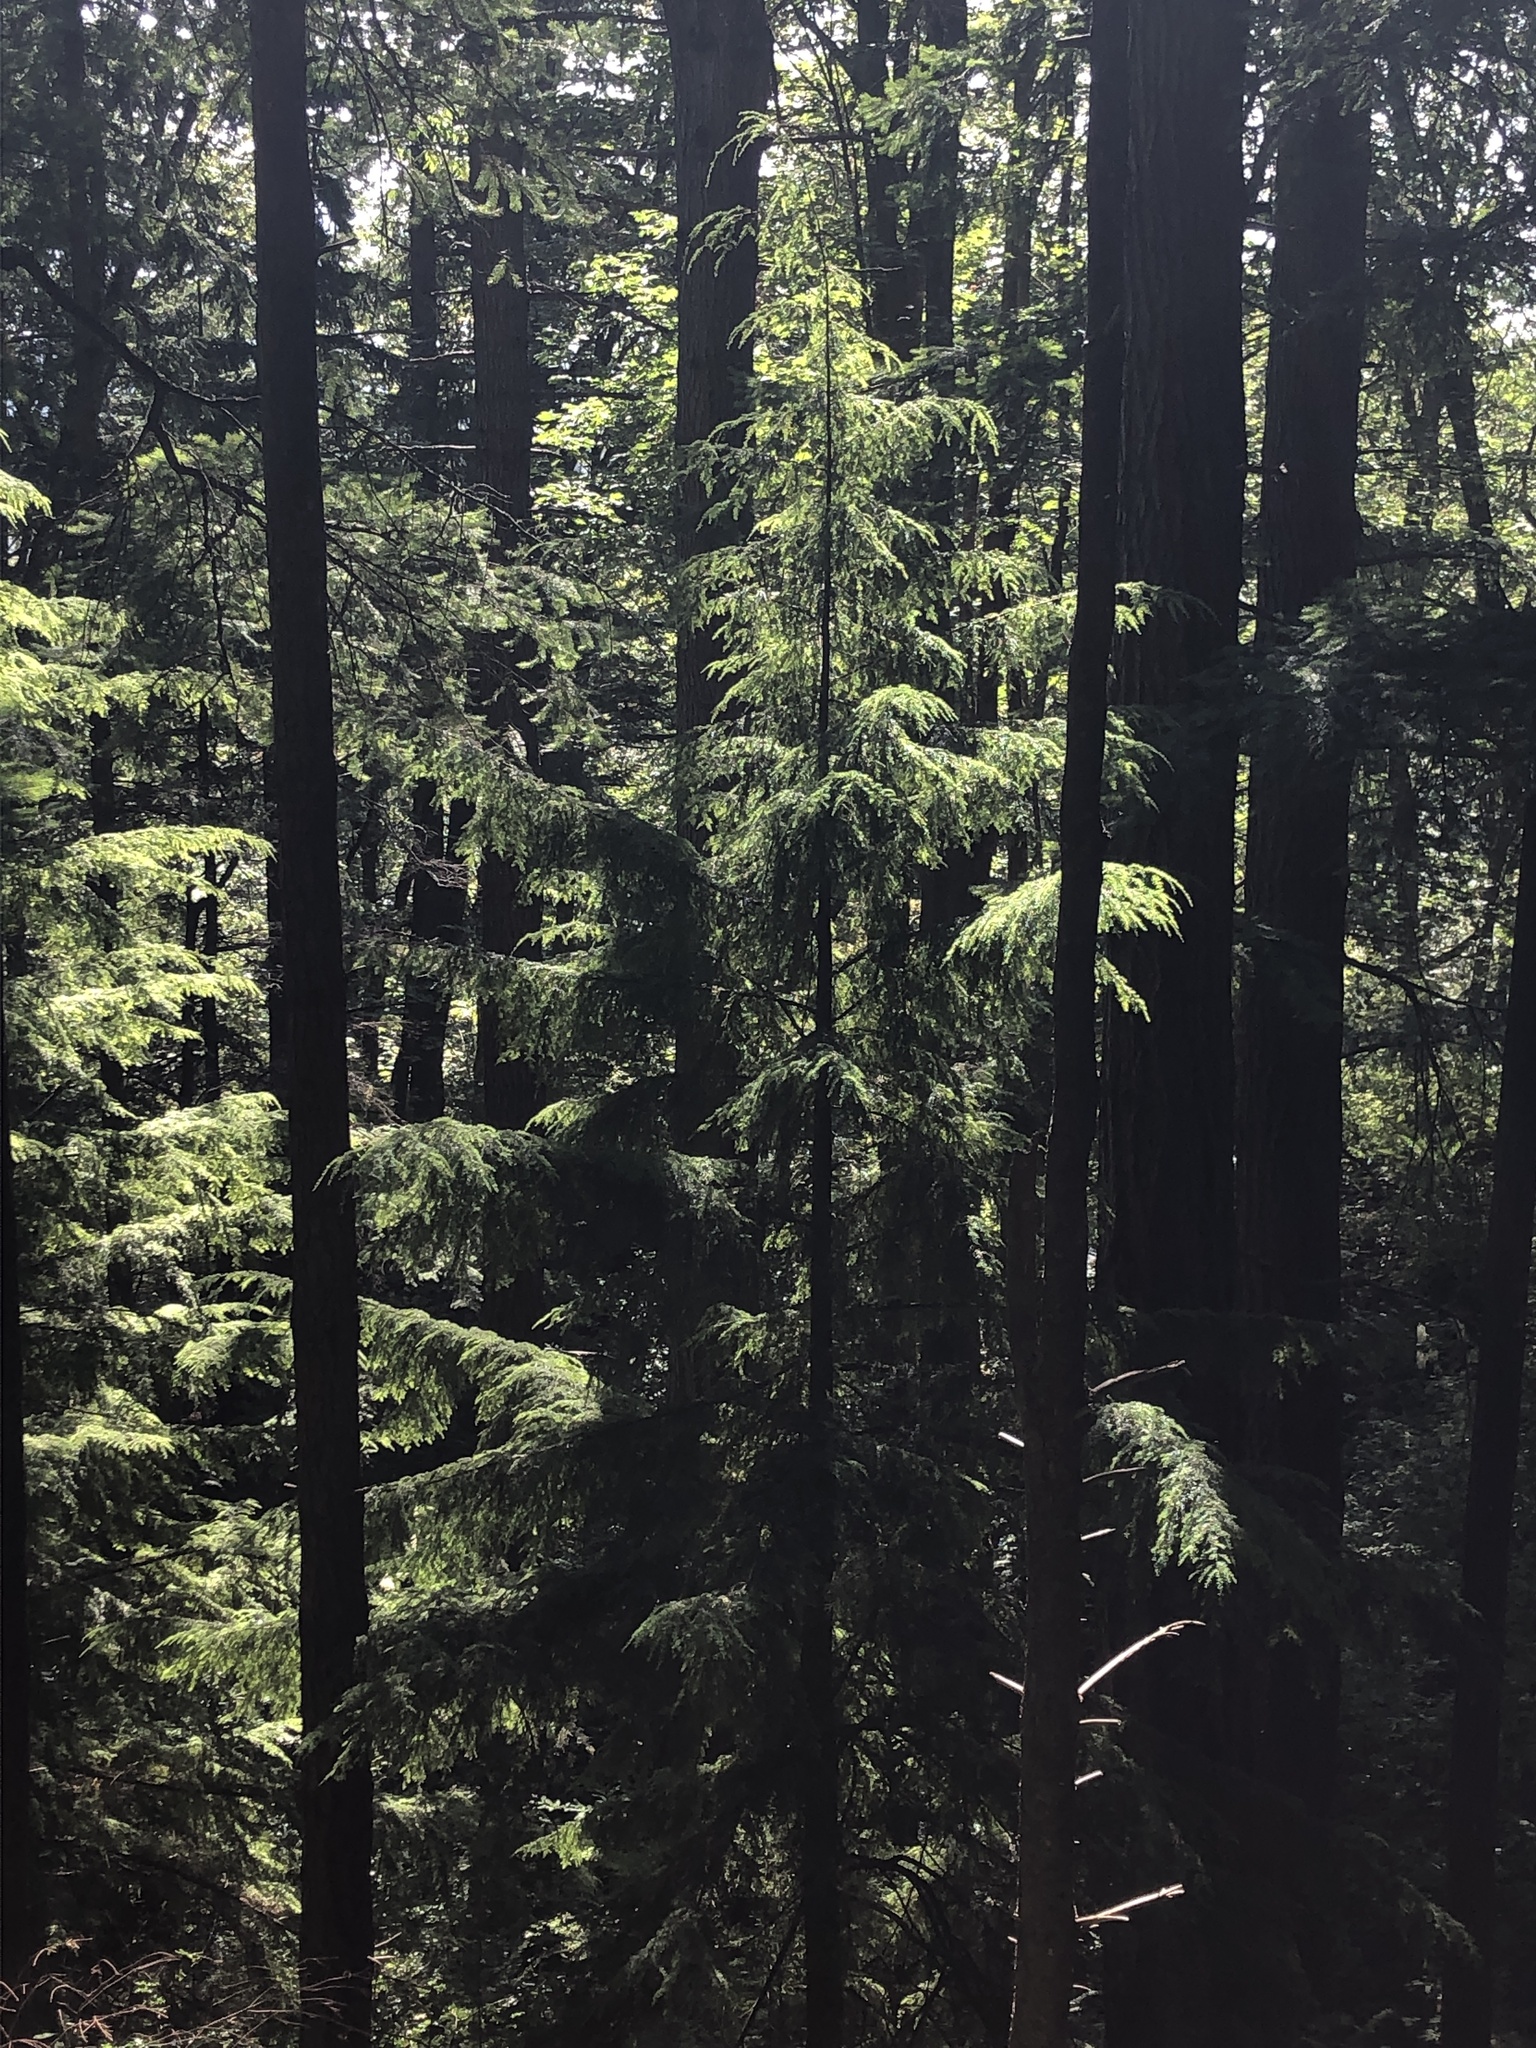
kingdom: Plantae
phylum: Tracheophyta
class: Pinopsida
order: Pinales
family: Pinaceae
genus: Tsuga
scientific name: Tsuga heterophylla
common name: Western hemlock
